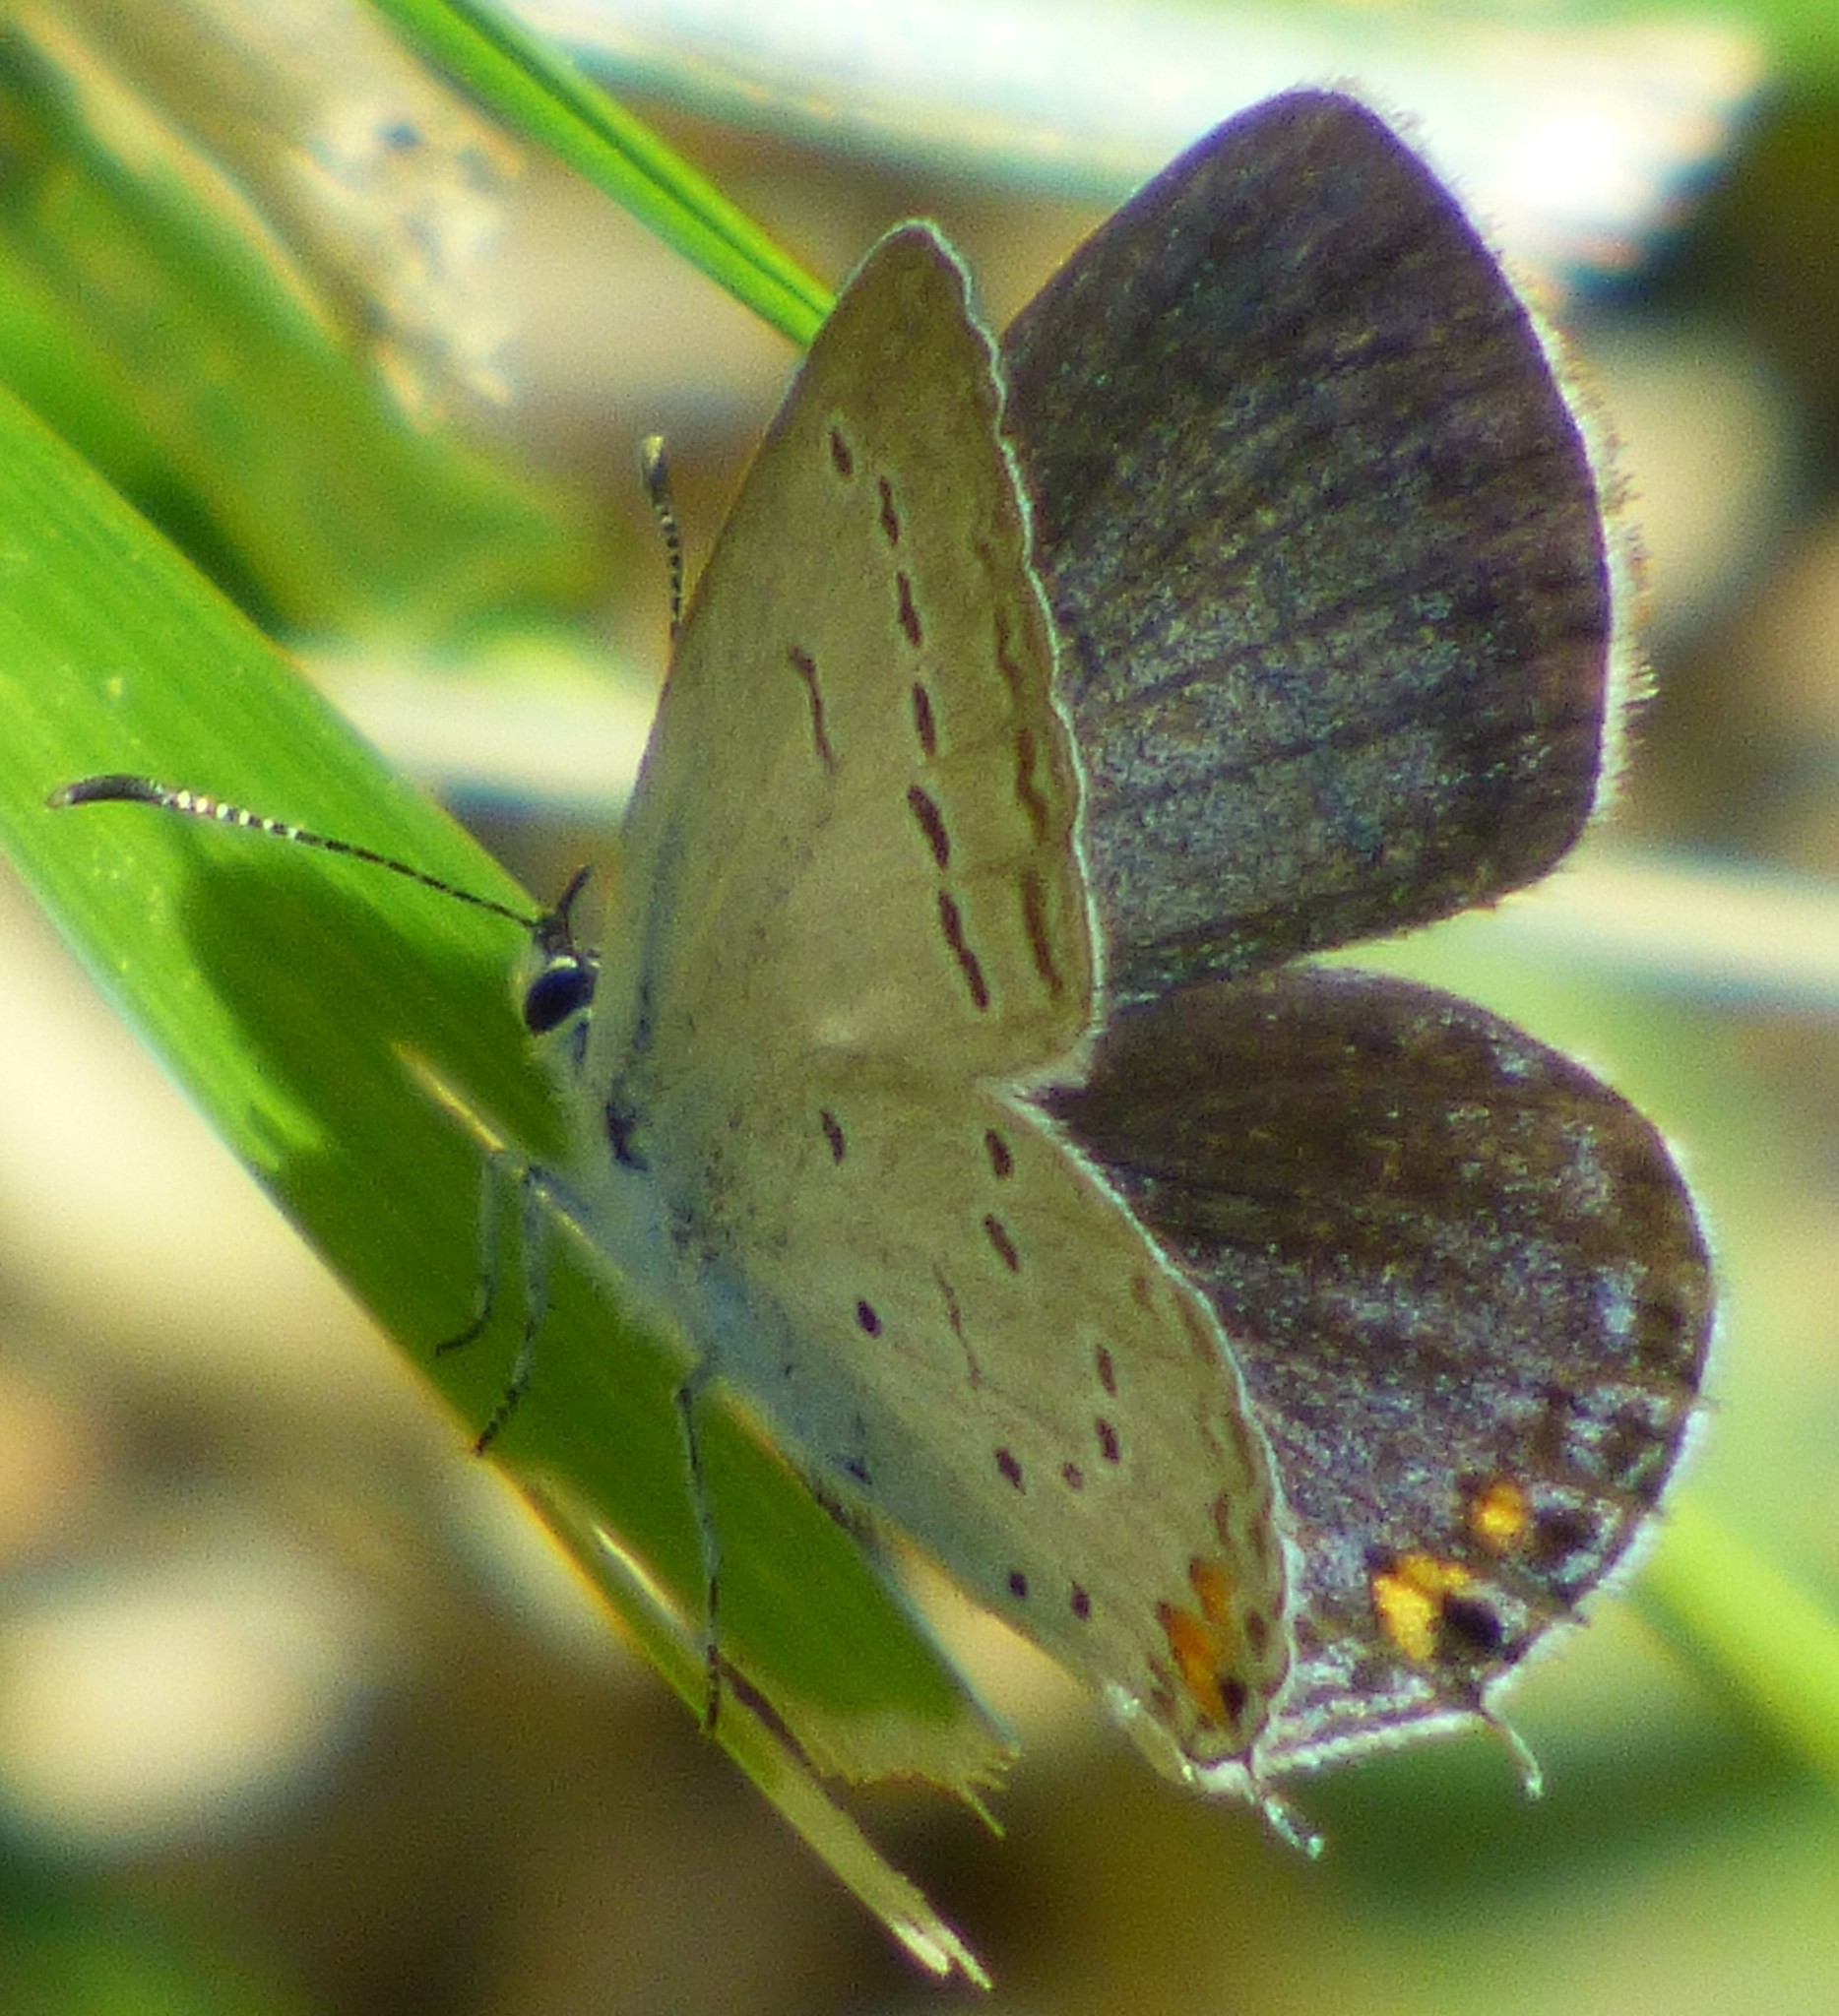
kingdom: Animalia
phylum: Arthropoda
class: Insecta
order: Lepidoptera
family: Lycaenidae
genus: Elkalyce
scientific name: Elkalyce comyntas
